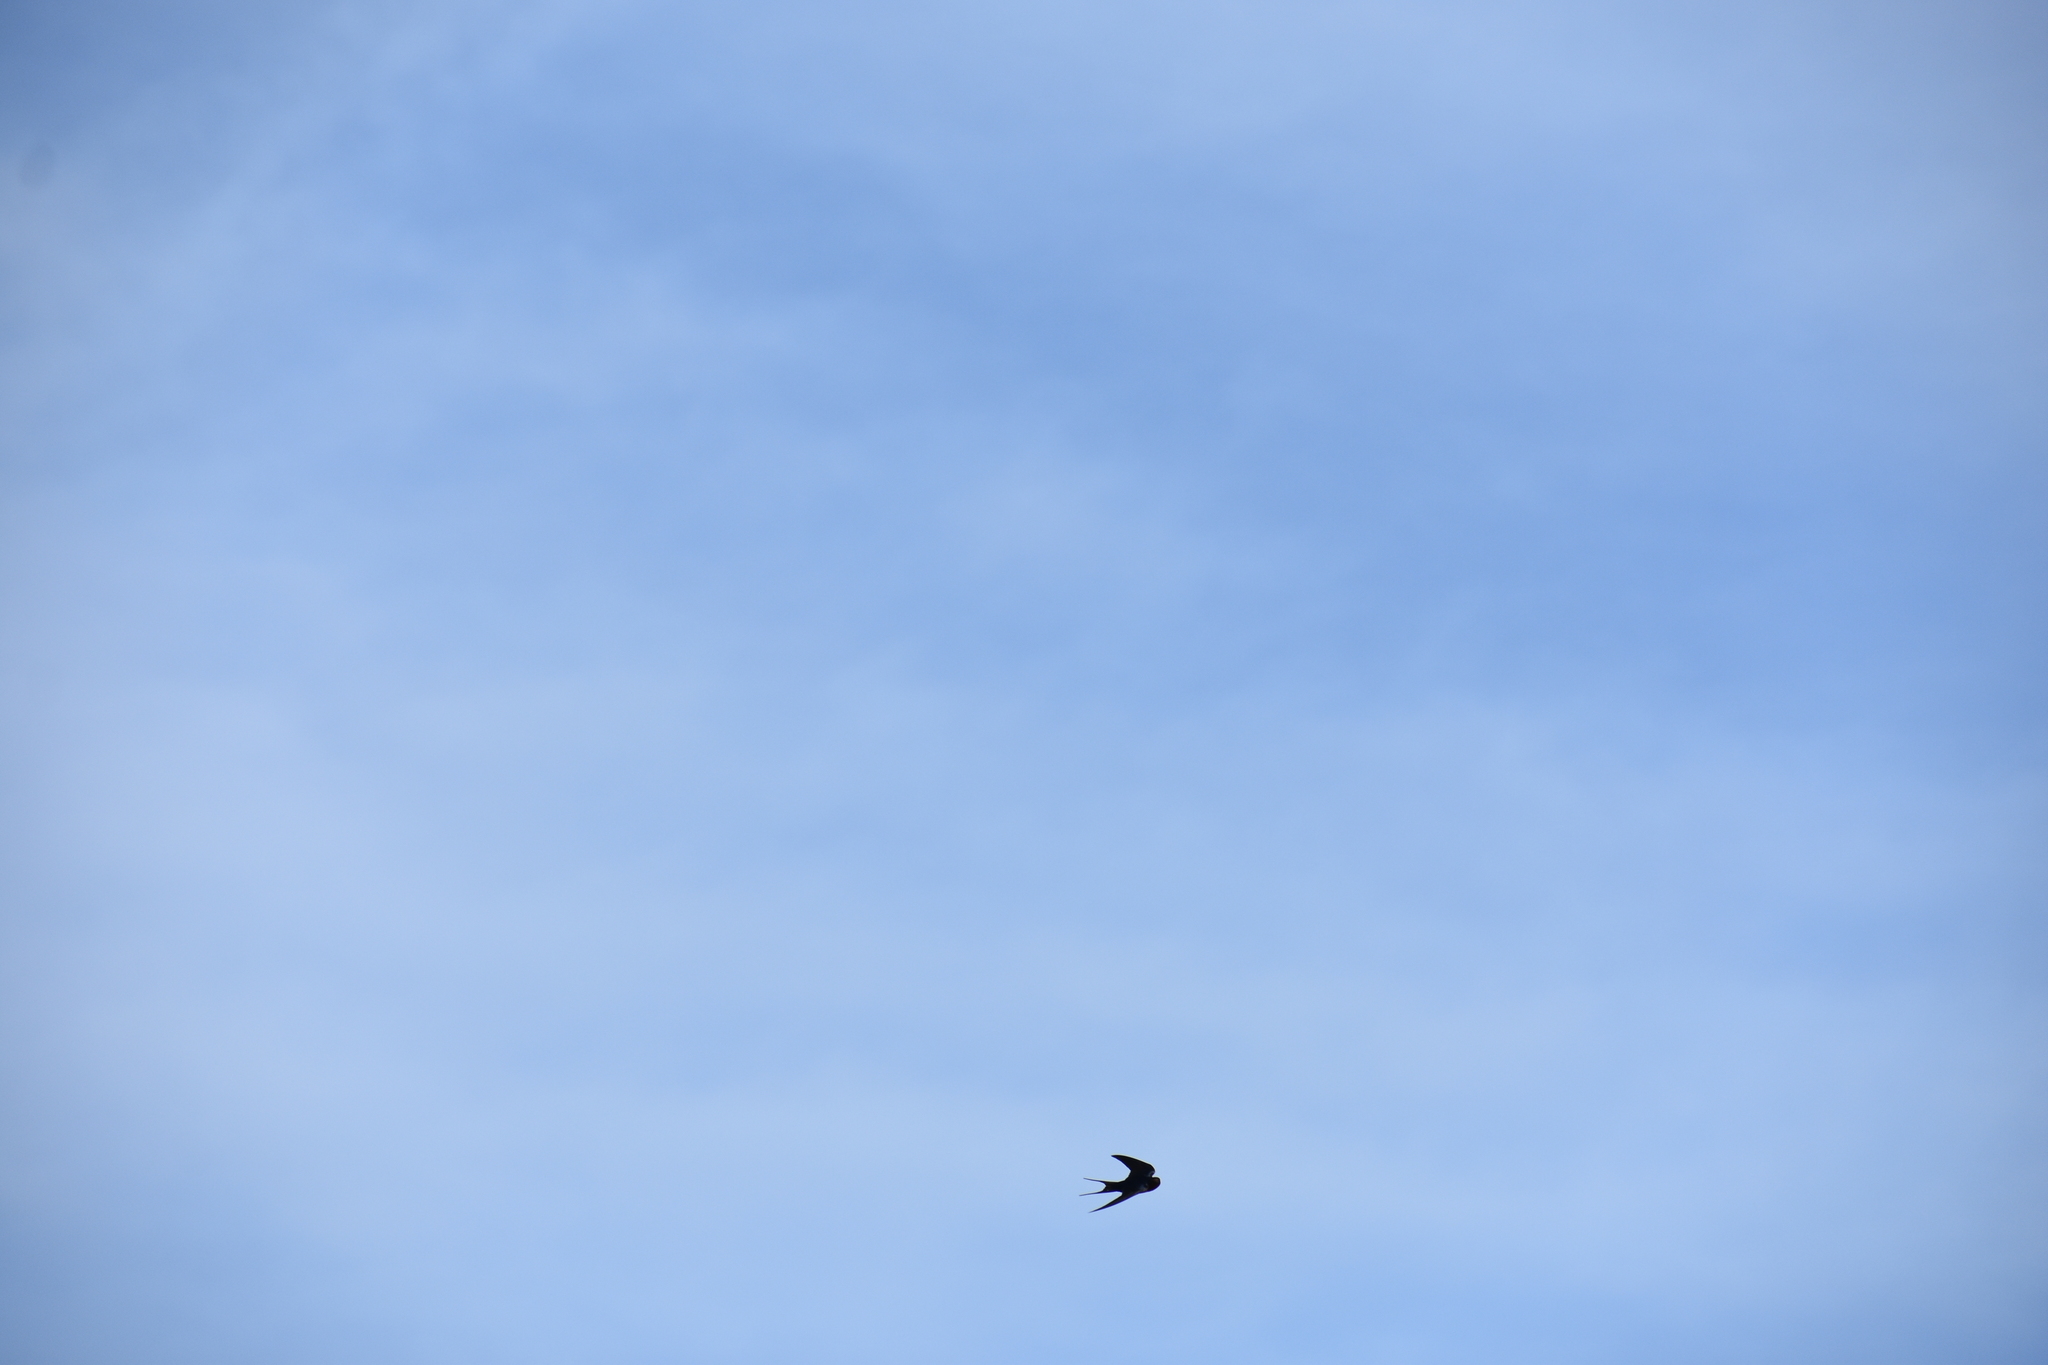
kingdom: Animalia
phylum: Chordata
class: Aves
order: Passeriformes
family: Hirundinidae
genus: Hirundo
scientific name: Hirundo rustica
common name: Barn swallow
